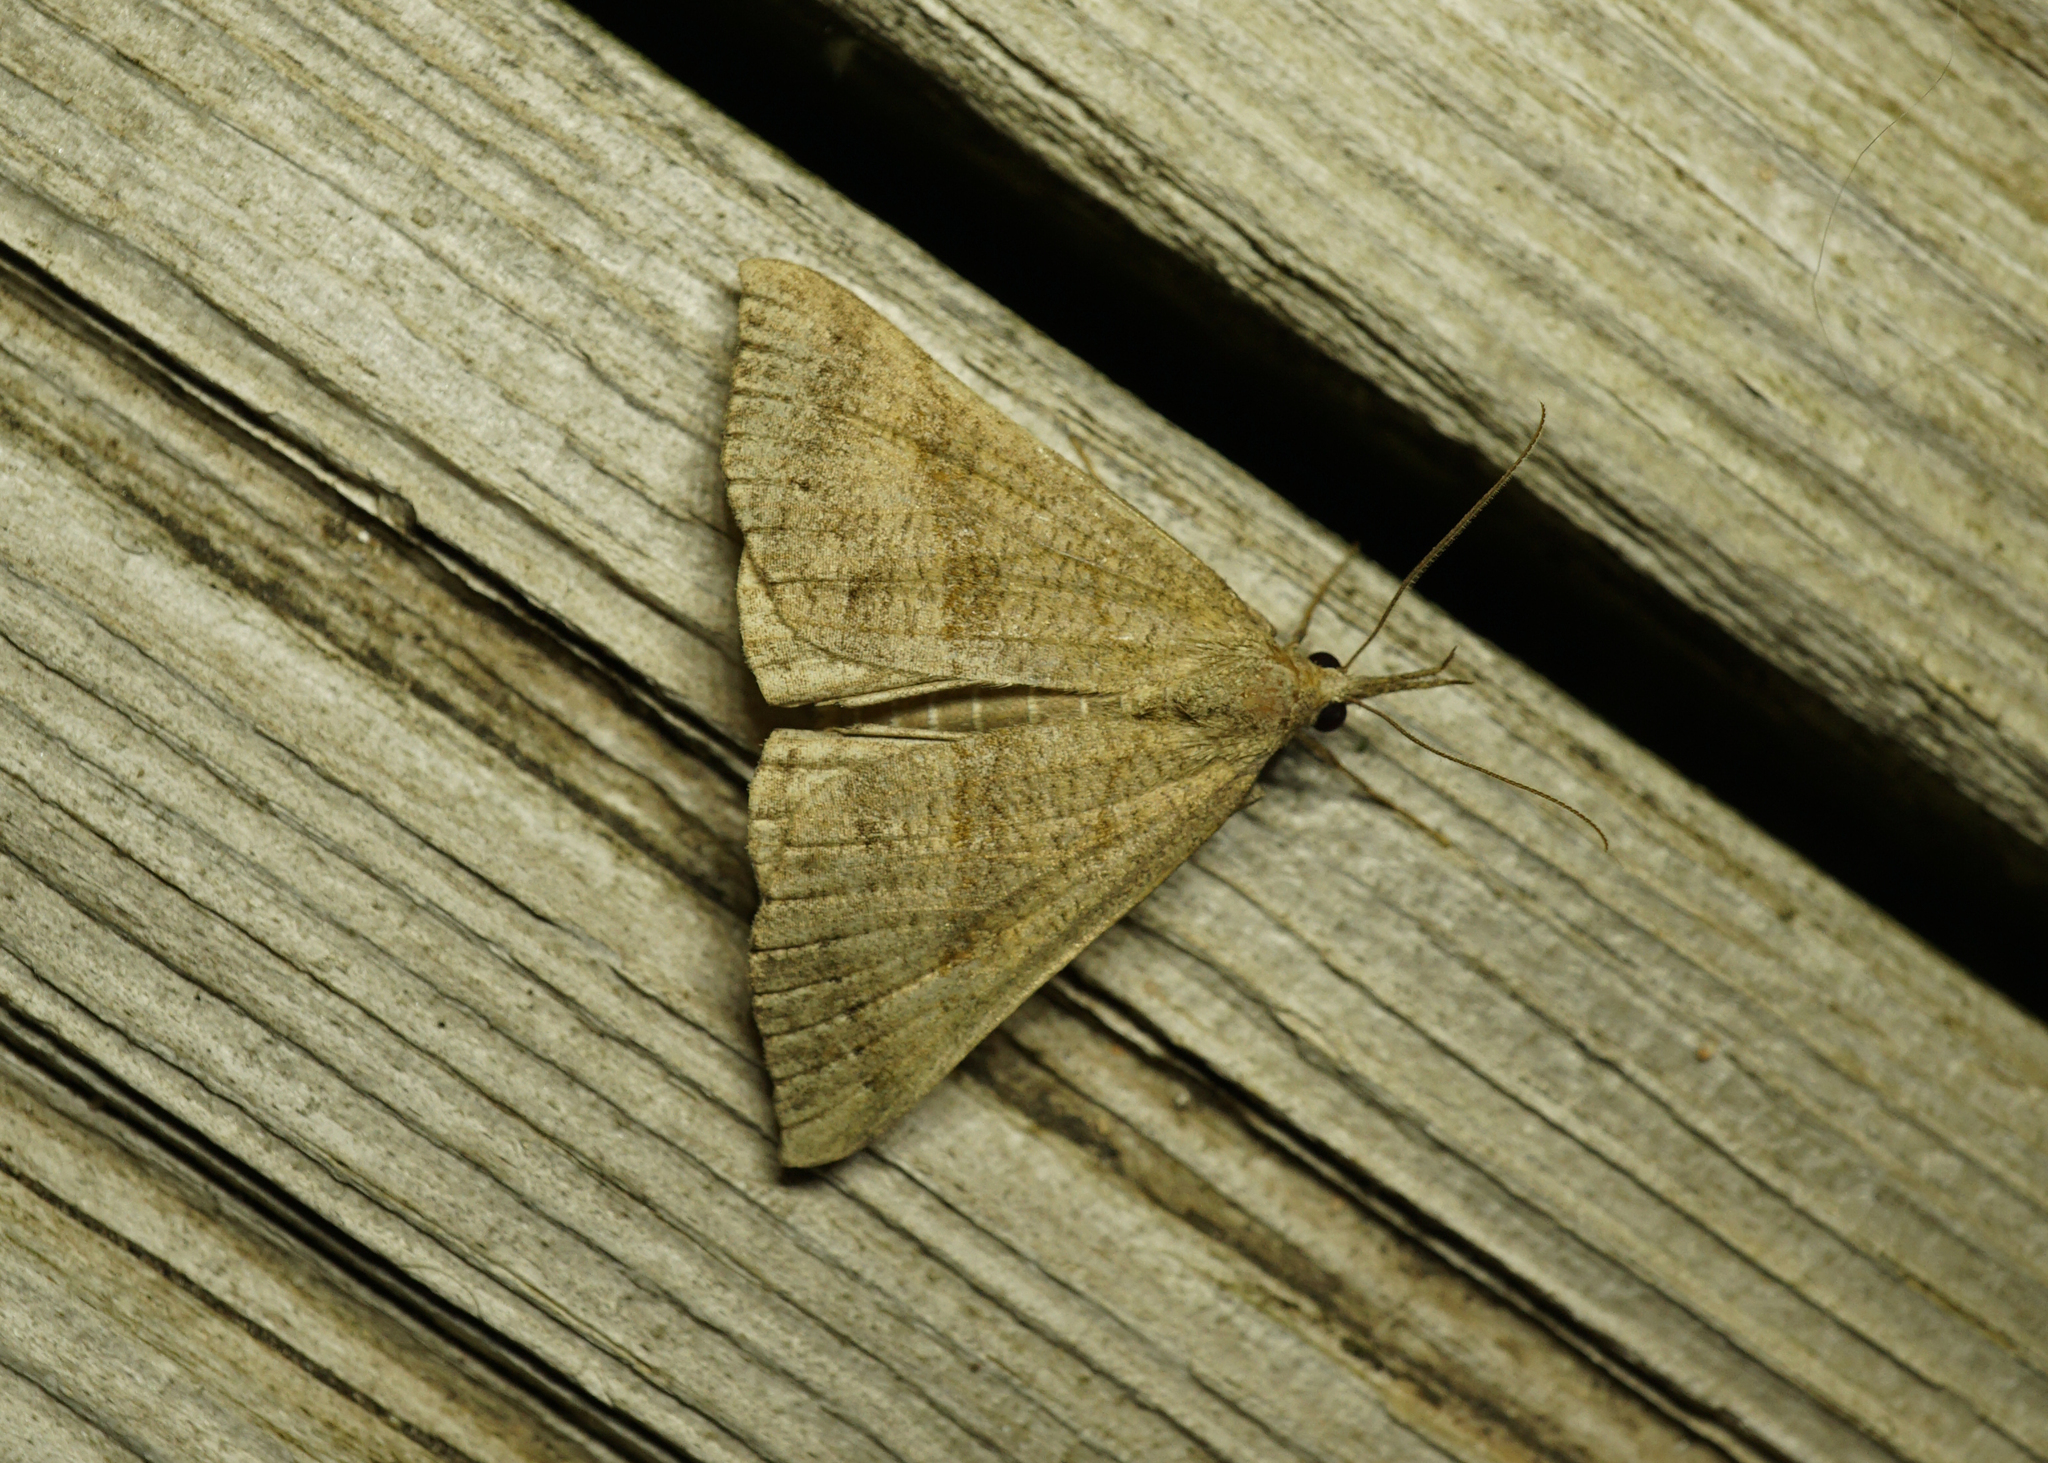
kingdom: Animalia
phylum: Arthropoda
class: Insecta
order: Lepidoptera
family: Erebidae
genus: Hypena
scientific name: Hypena proboscidalis
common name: Snout
